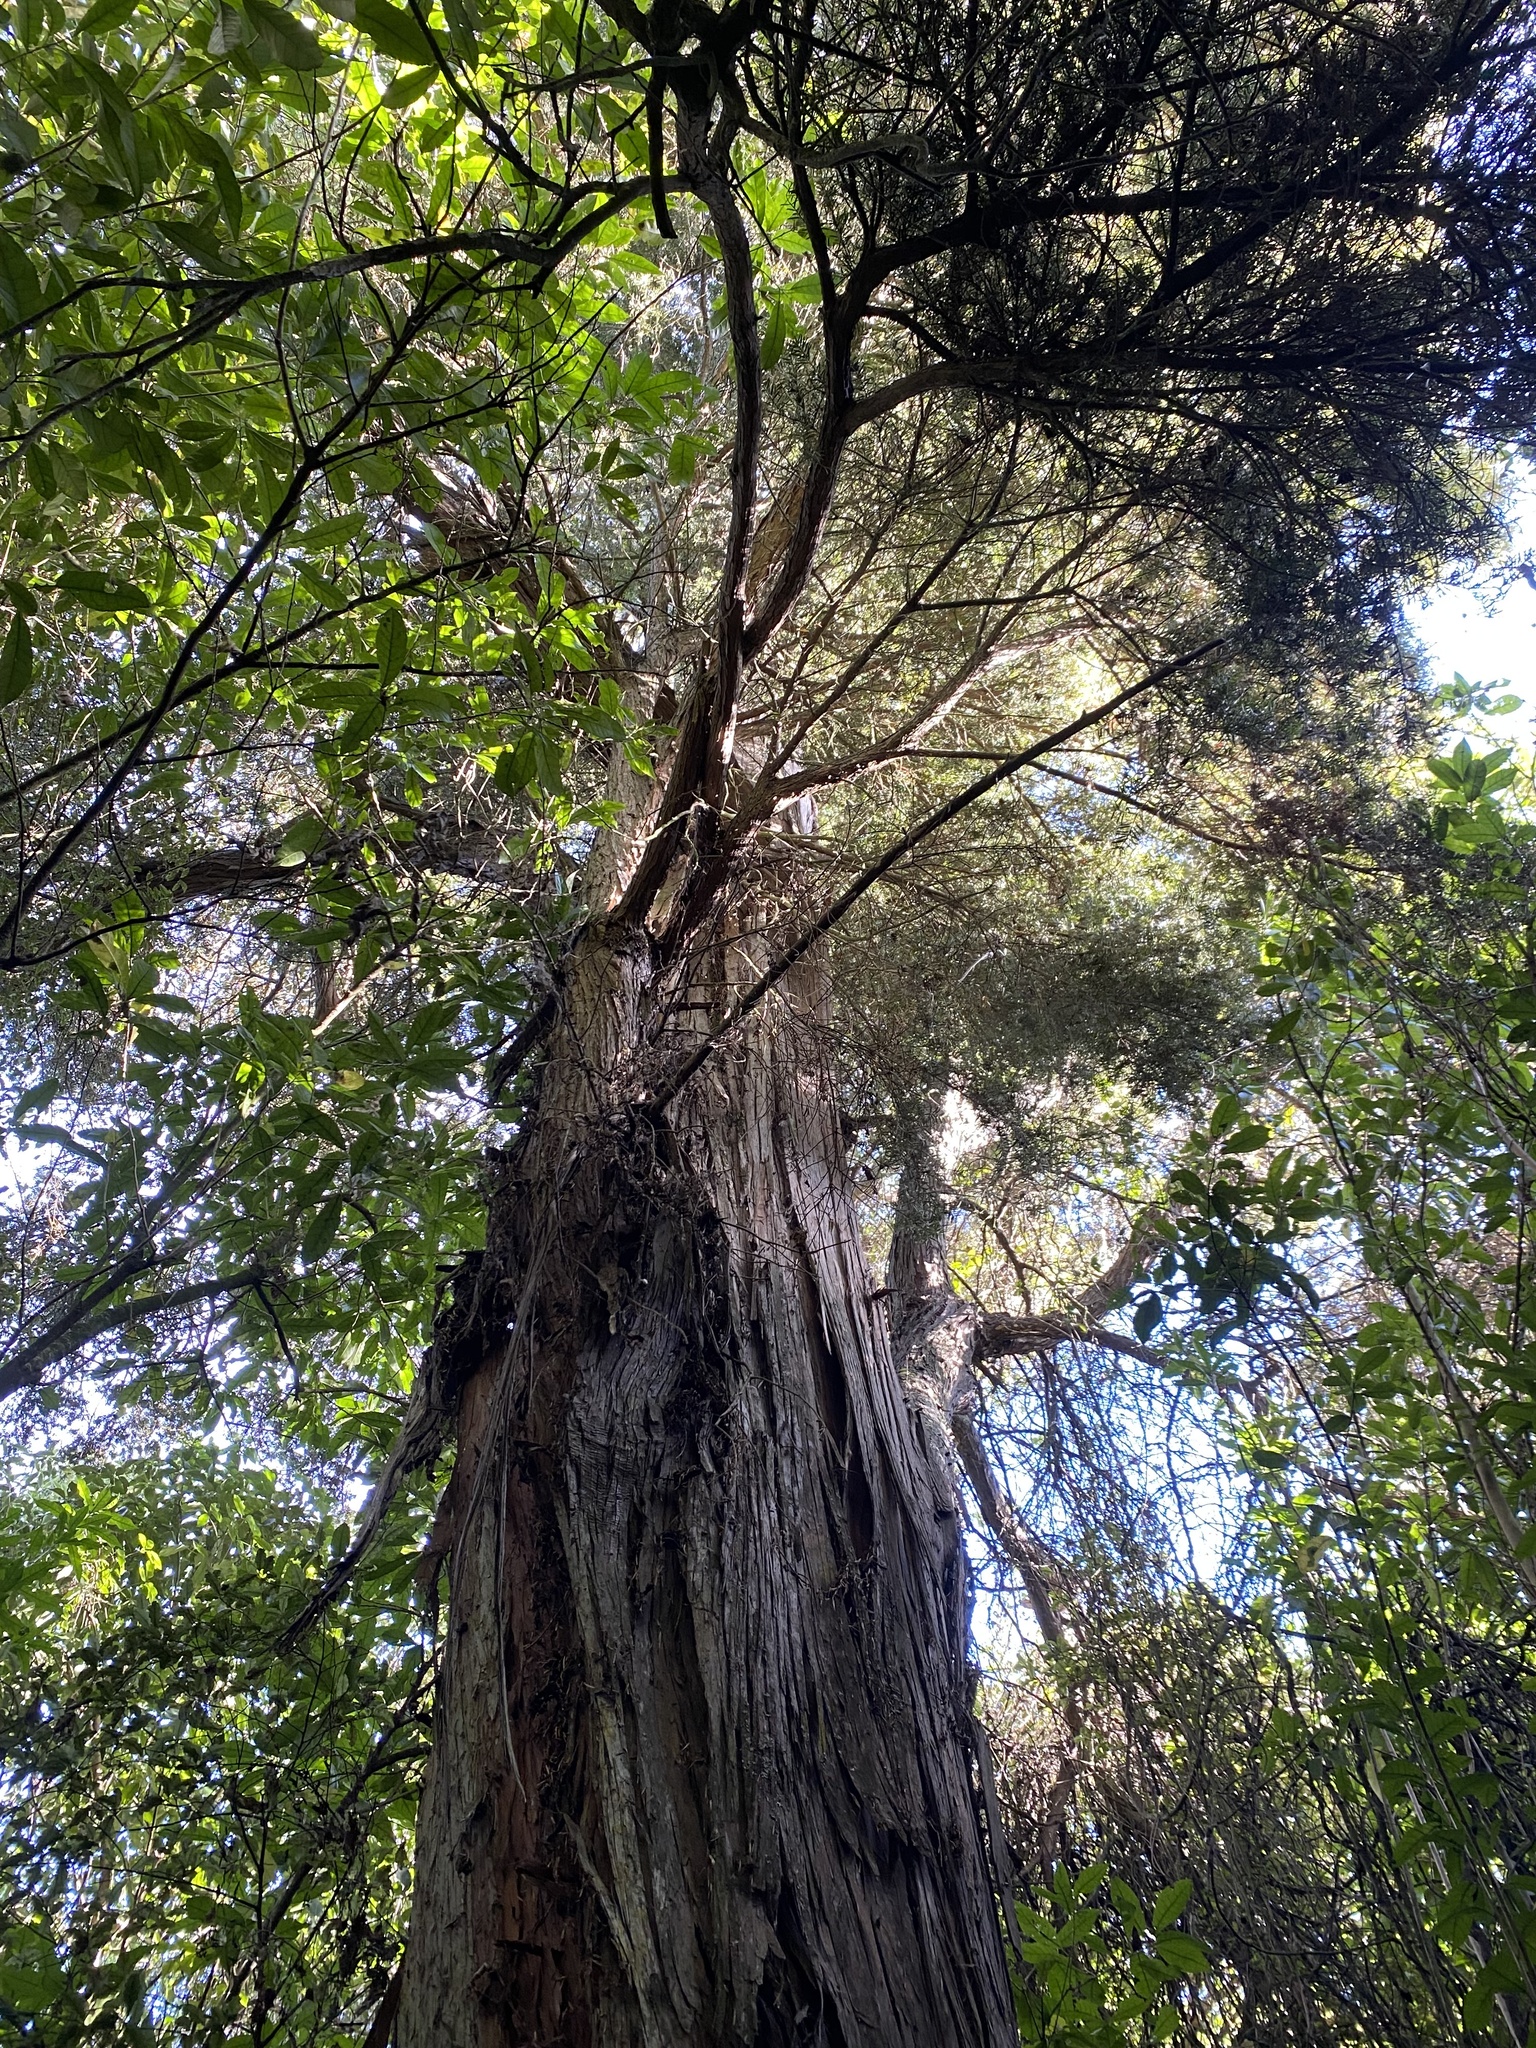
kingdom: Plantae
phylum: Tracheophyta
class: Pinopsida
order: Pinales
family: Podocarpaceae
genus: Podocarpus
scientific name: Podocarpus totara
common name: Totara
